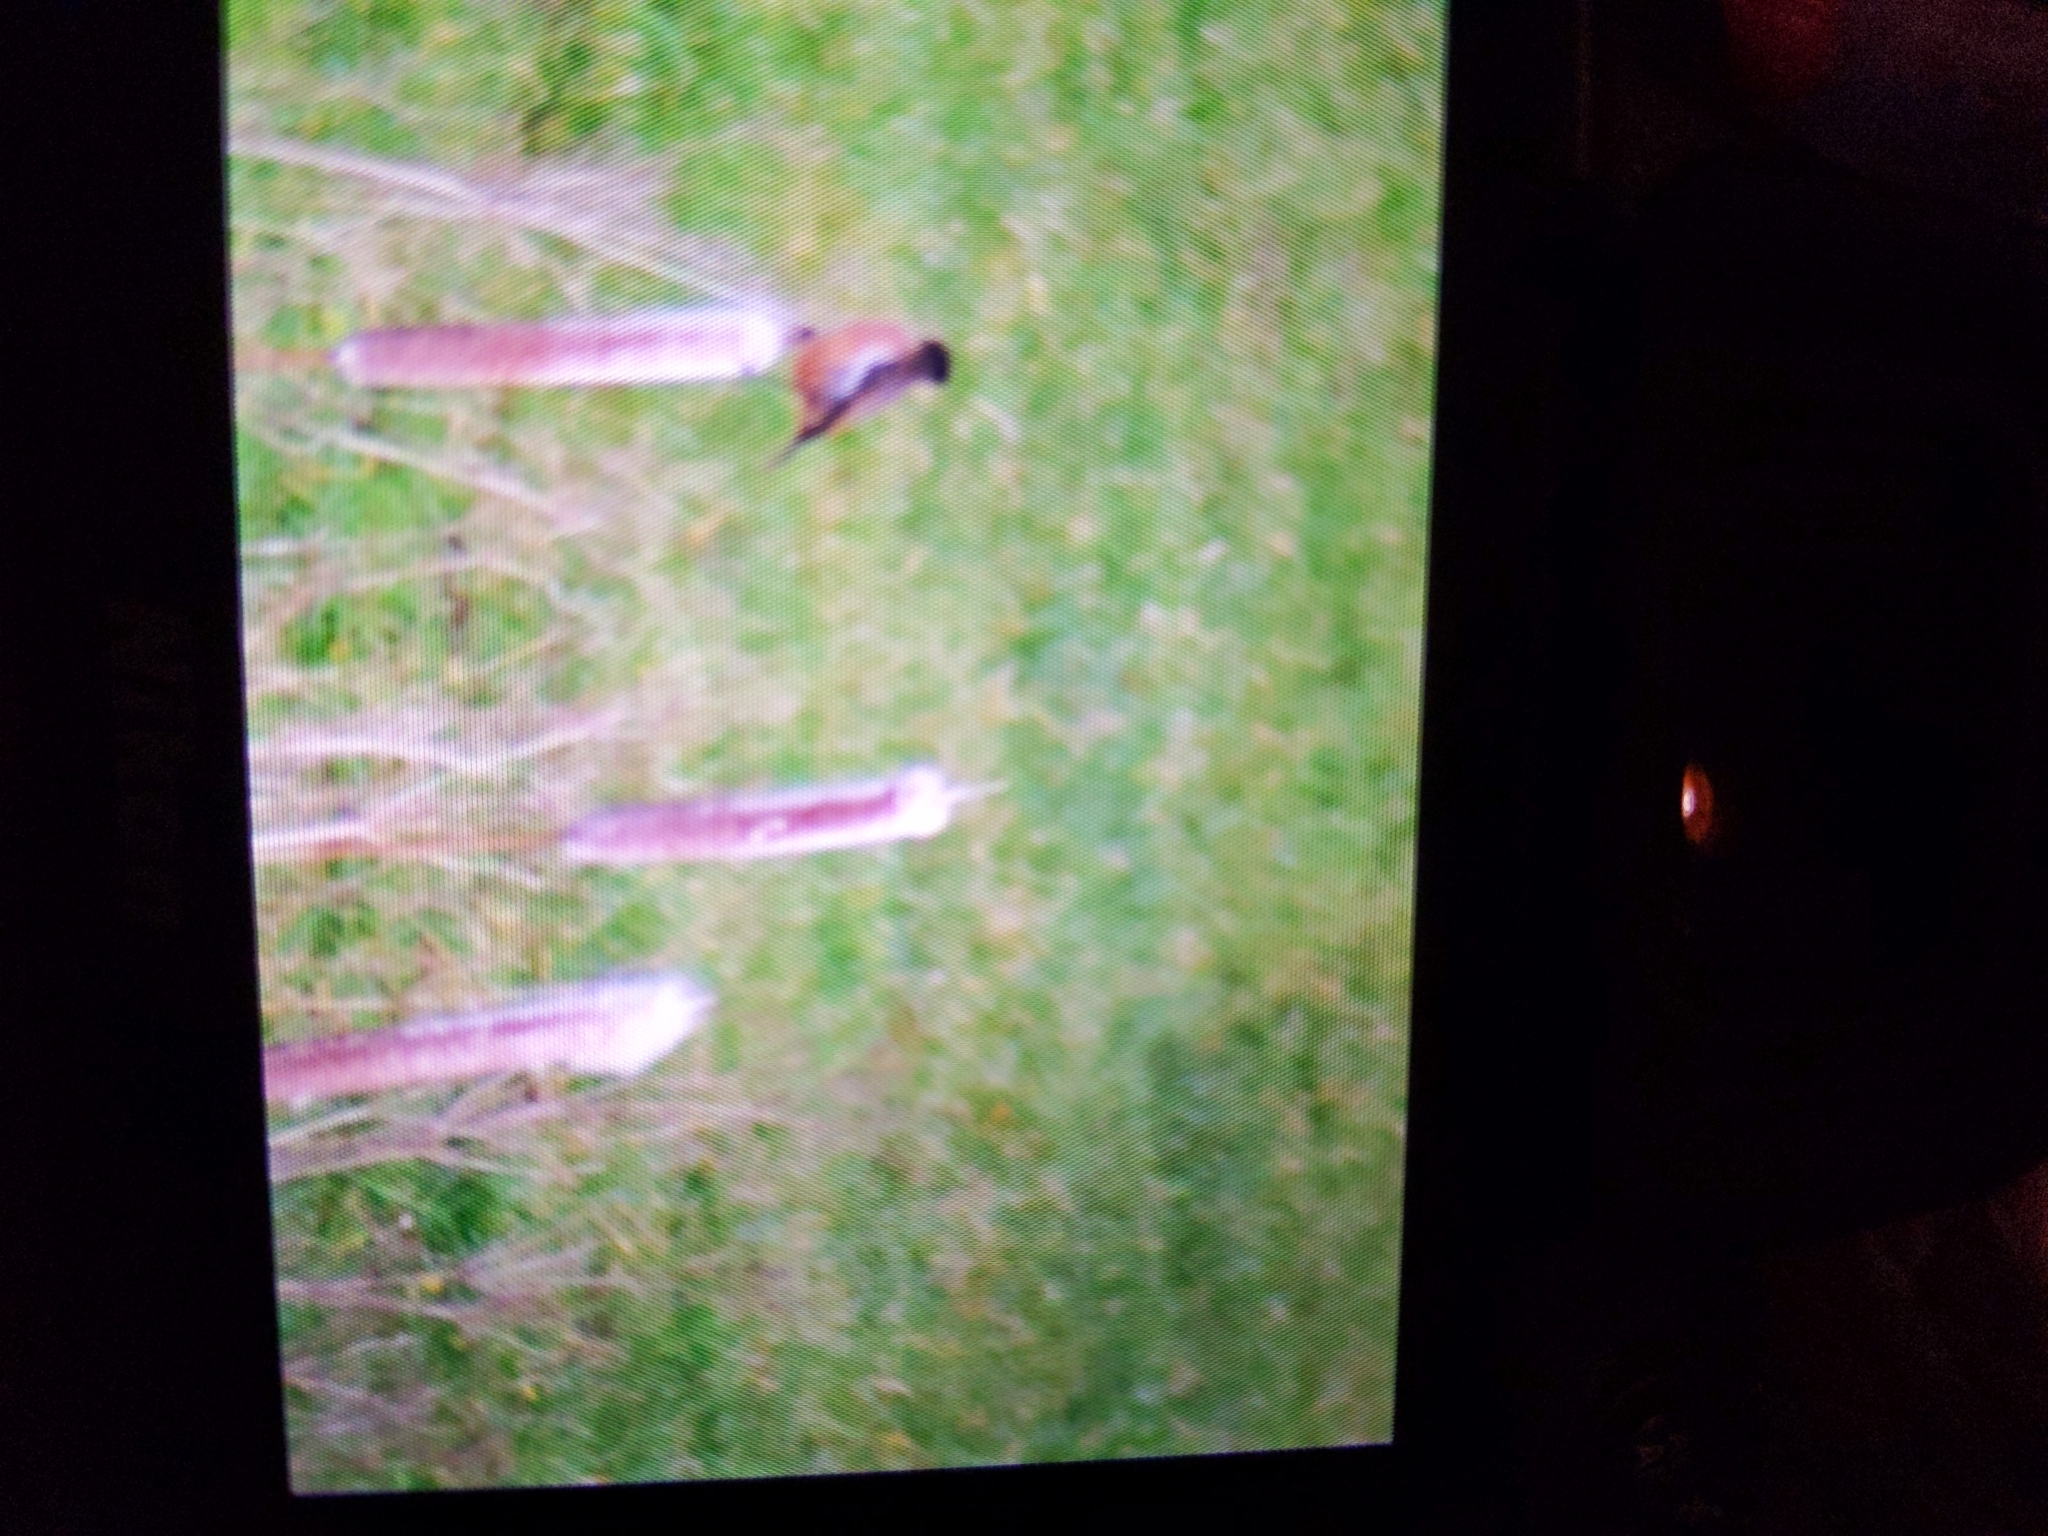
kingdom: Animalia
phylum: Chordata
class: Aves
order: Passeriformes
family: Muscicapidae
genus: Saxicola
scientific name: Saxicola rubicola
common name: European stonechat
